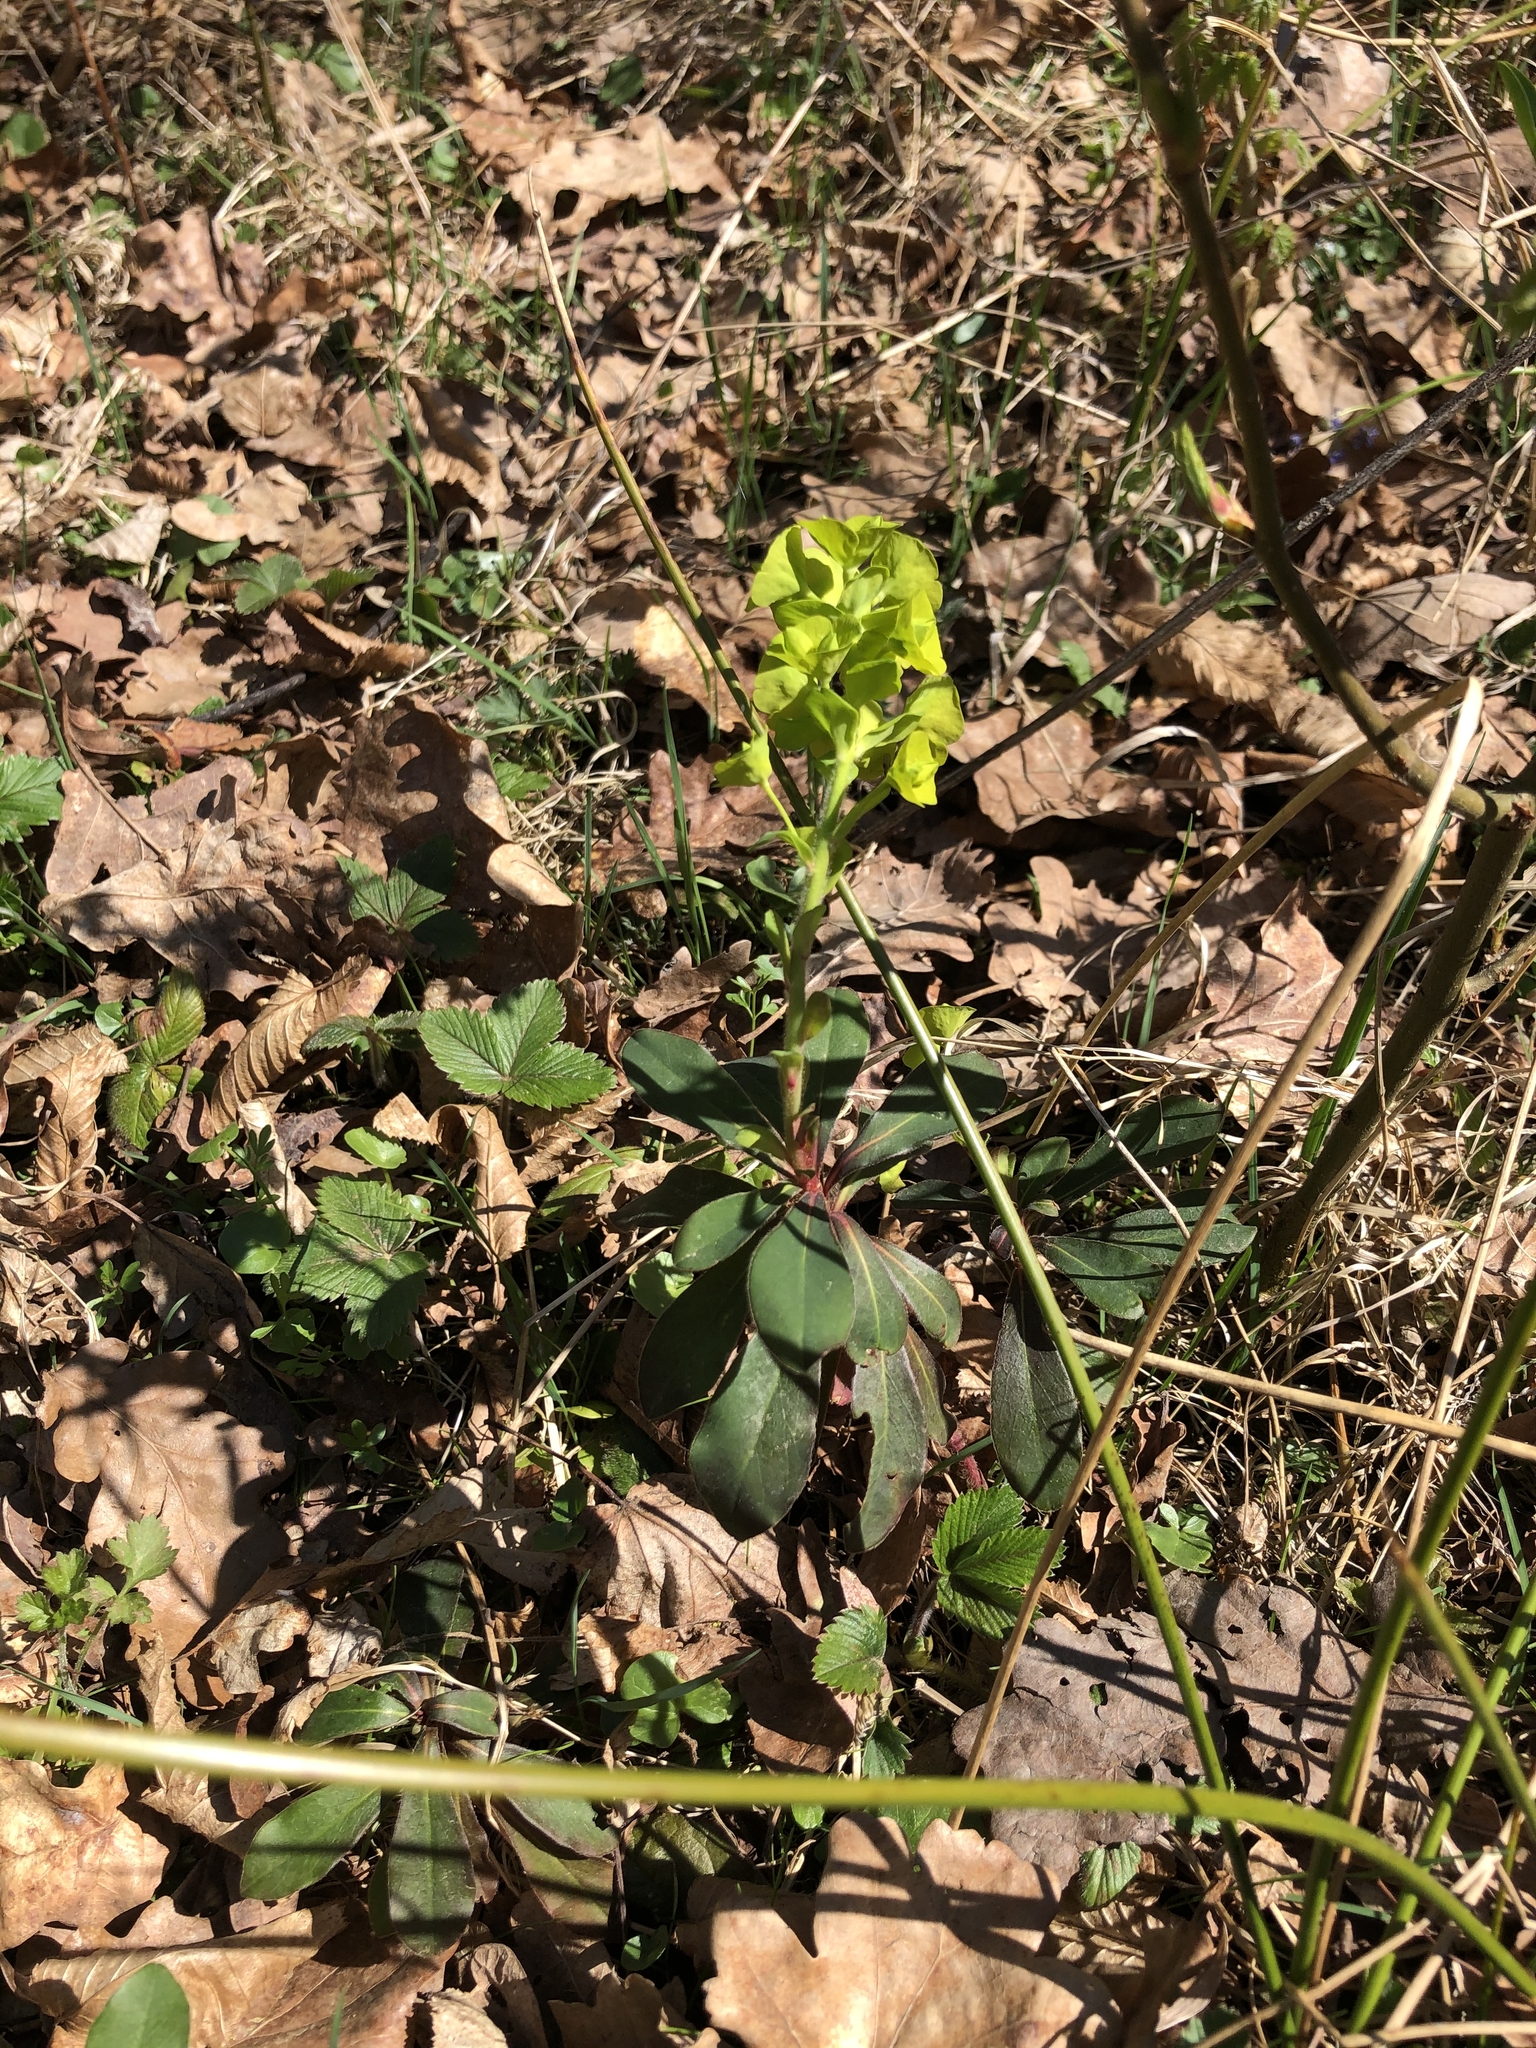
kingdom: Plantae
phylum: Tracheophyta
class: Magnoliopsida
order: Malpighiales
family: Euphorbiaceae
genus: Euphorbia
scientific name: Euphorbia amygdaloides
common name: Wood spurge
